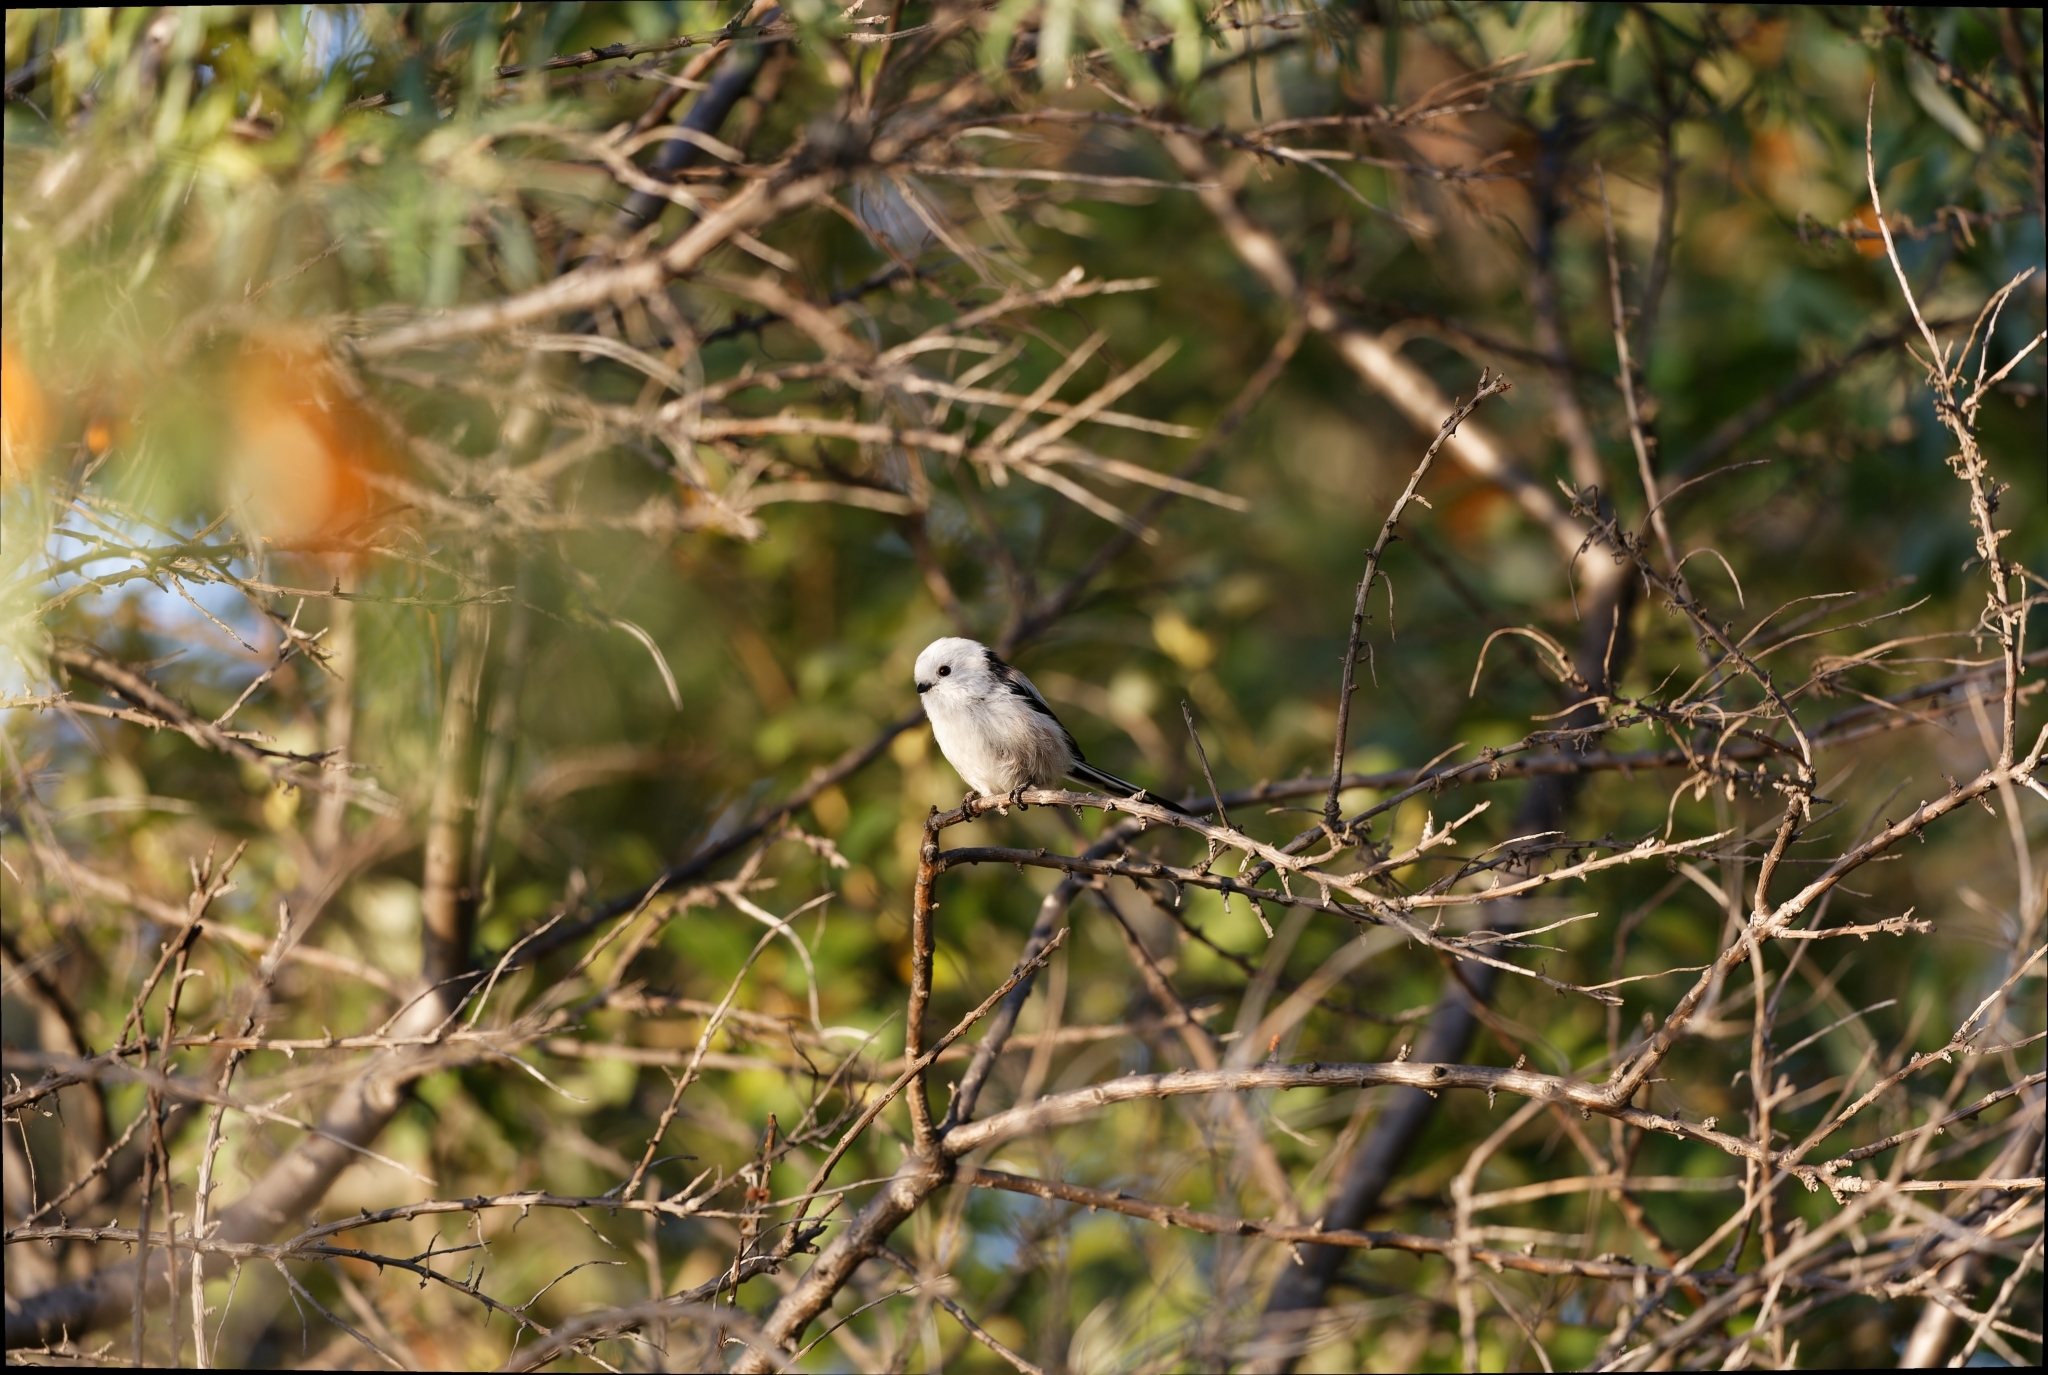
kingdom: Animalia
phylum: Chordata
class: Aves
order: Passeriformes
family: Aegithalidae
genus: Aegithalos
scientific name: Aegithalos caudatus
